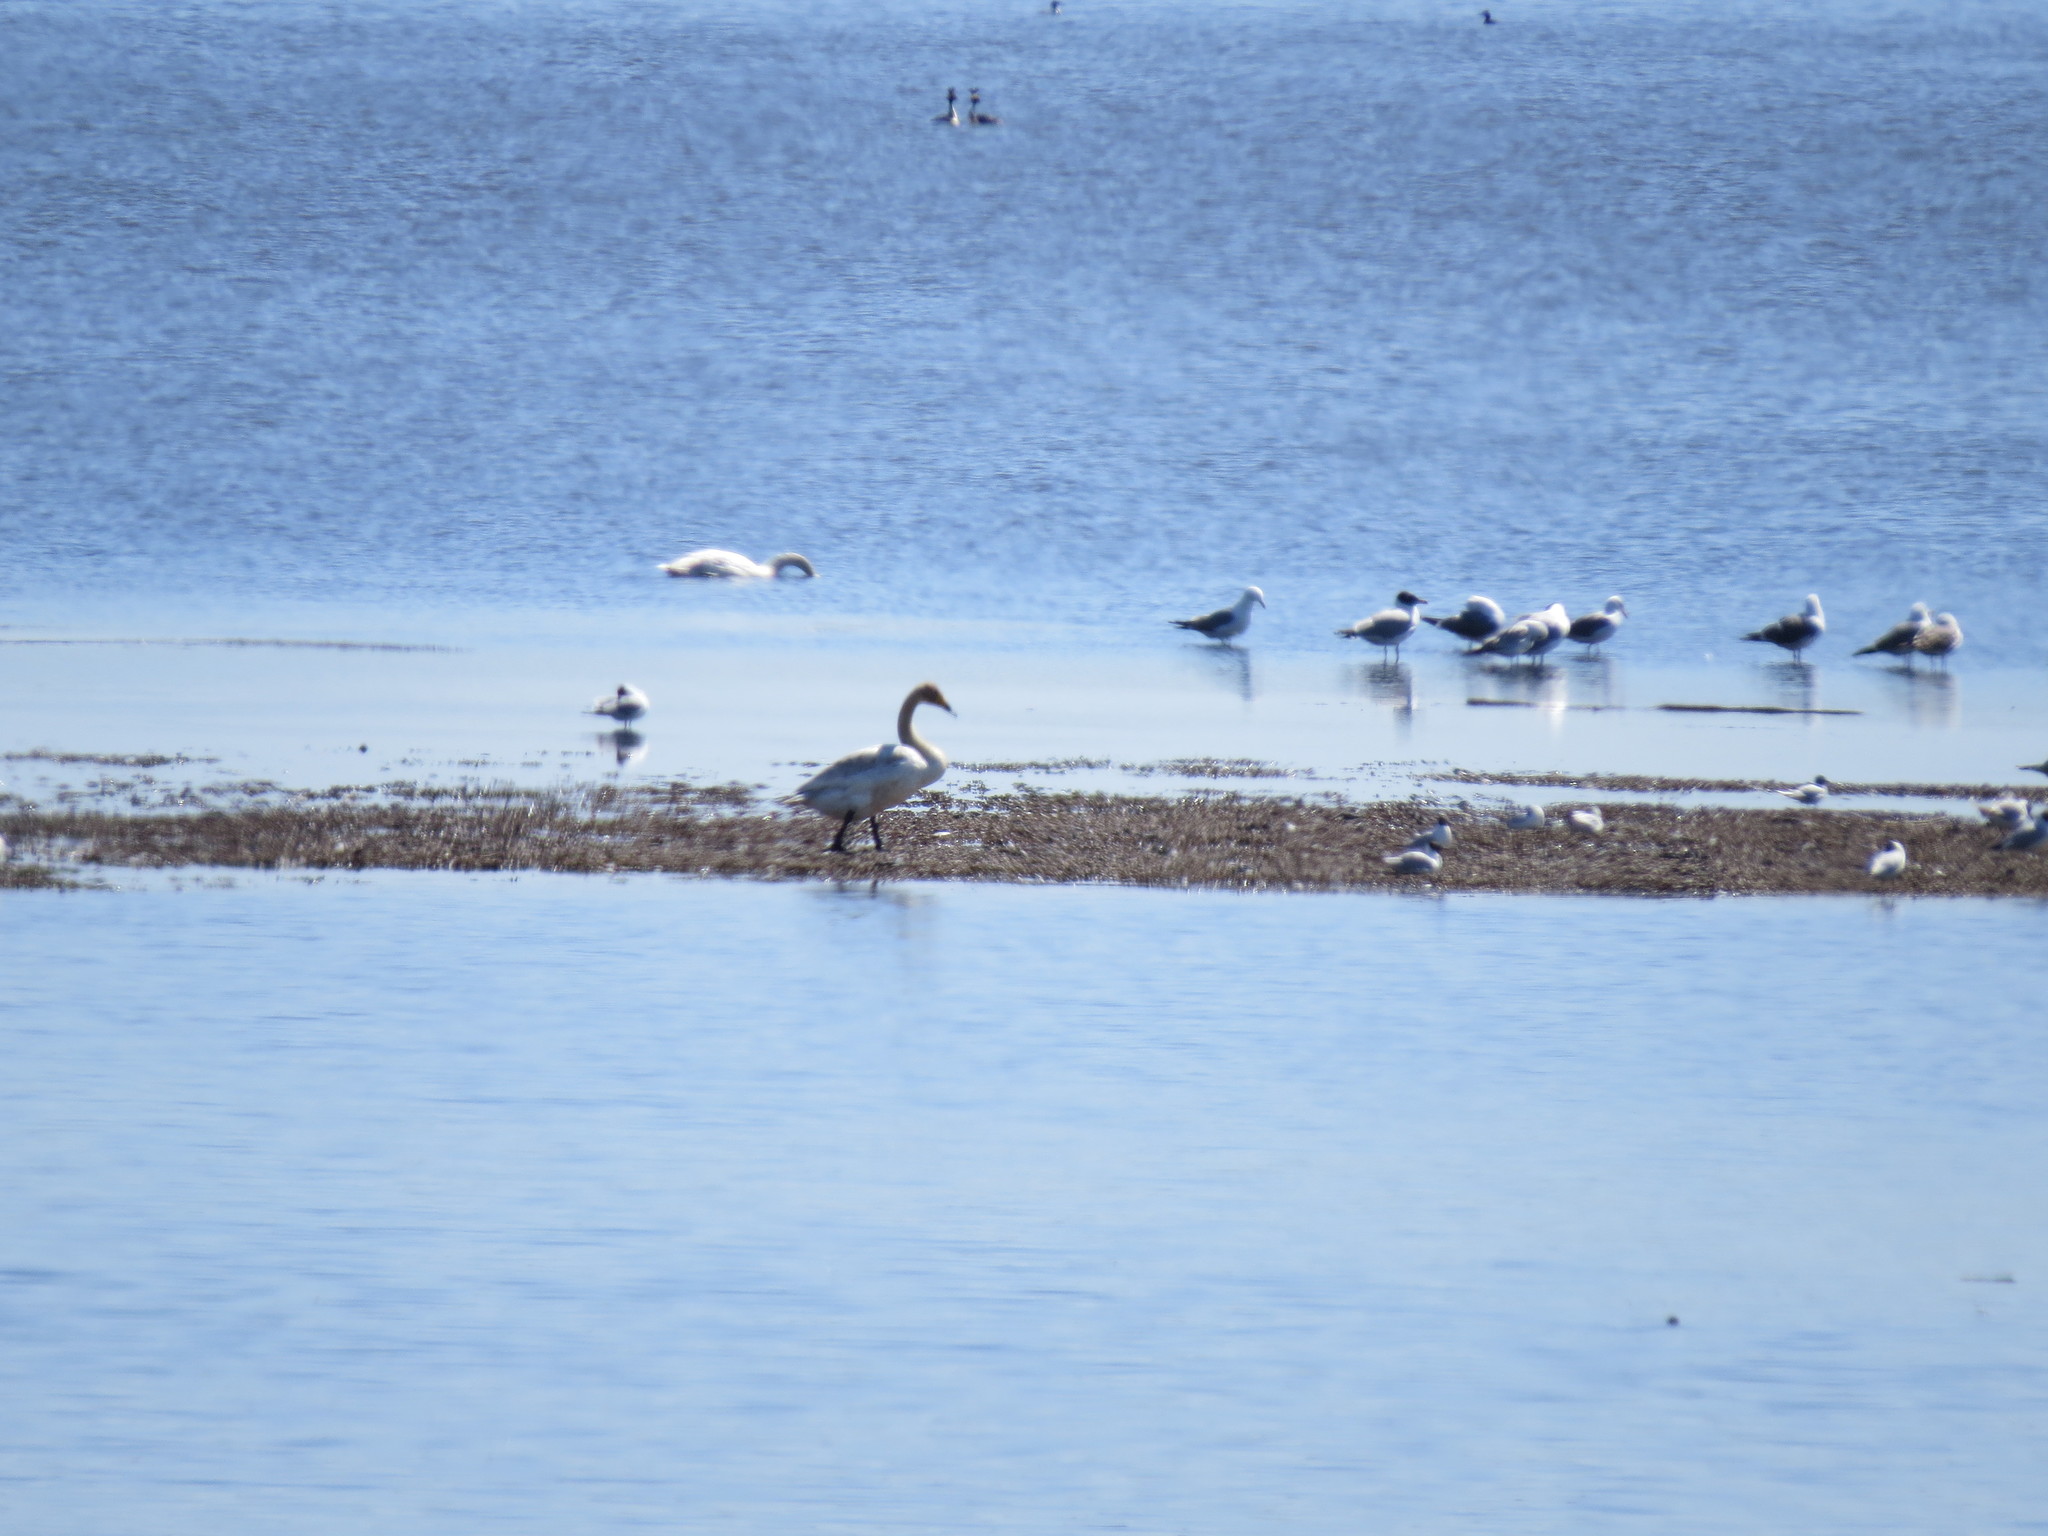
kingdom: Animalia
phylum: Chordata
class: Aves
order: Charadriiformes
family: Laridae
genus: Ichthyaetus
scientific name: Ichthyaetus ichthyaetus
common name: Pallas's gull
